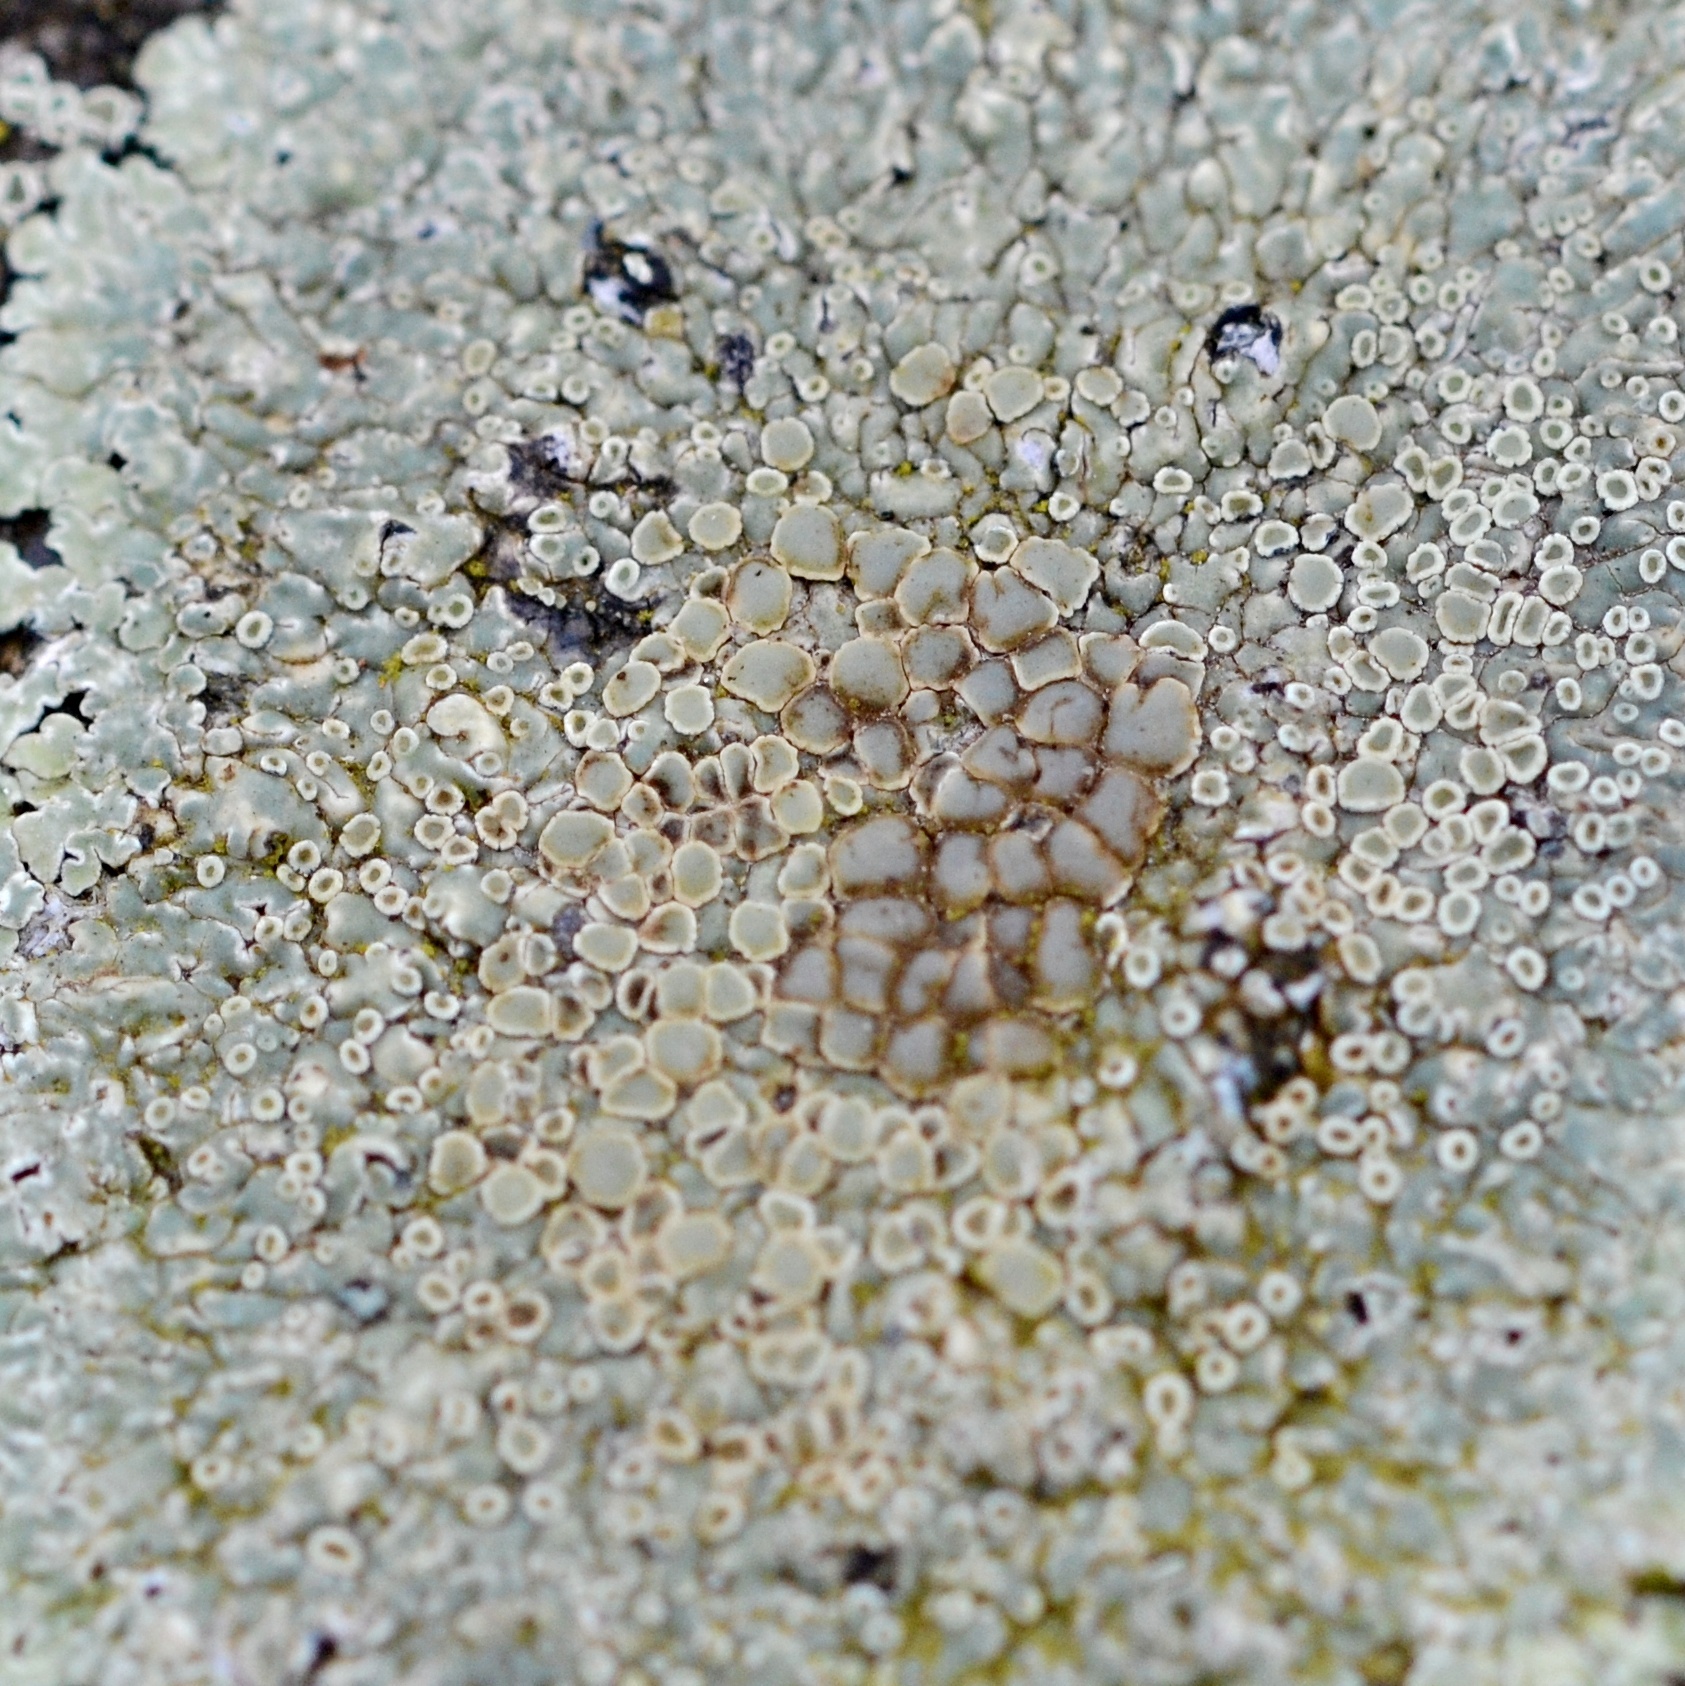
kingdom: Fungi
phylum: Ascomycota
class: Lecanoromycetes
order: Lecanorales
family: Lecanoraceae
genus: Protoparmeliopsis
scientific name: Protoparmeliopsis muralis
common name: Stonewall rim lichen
